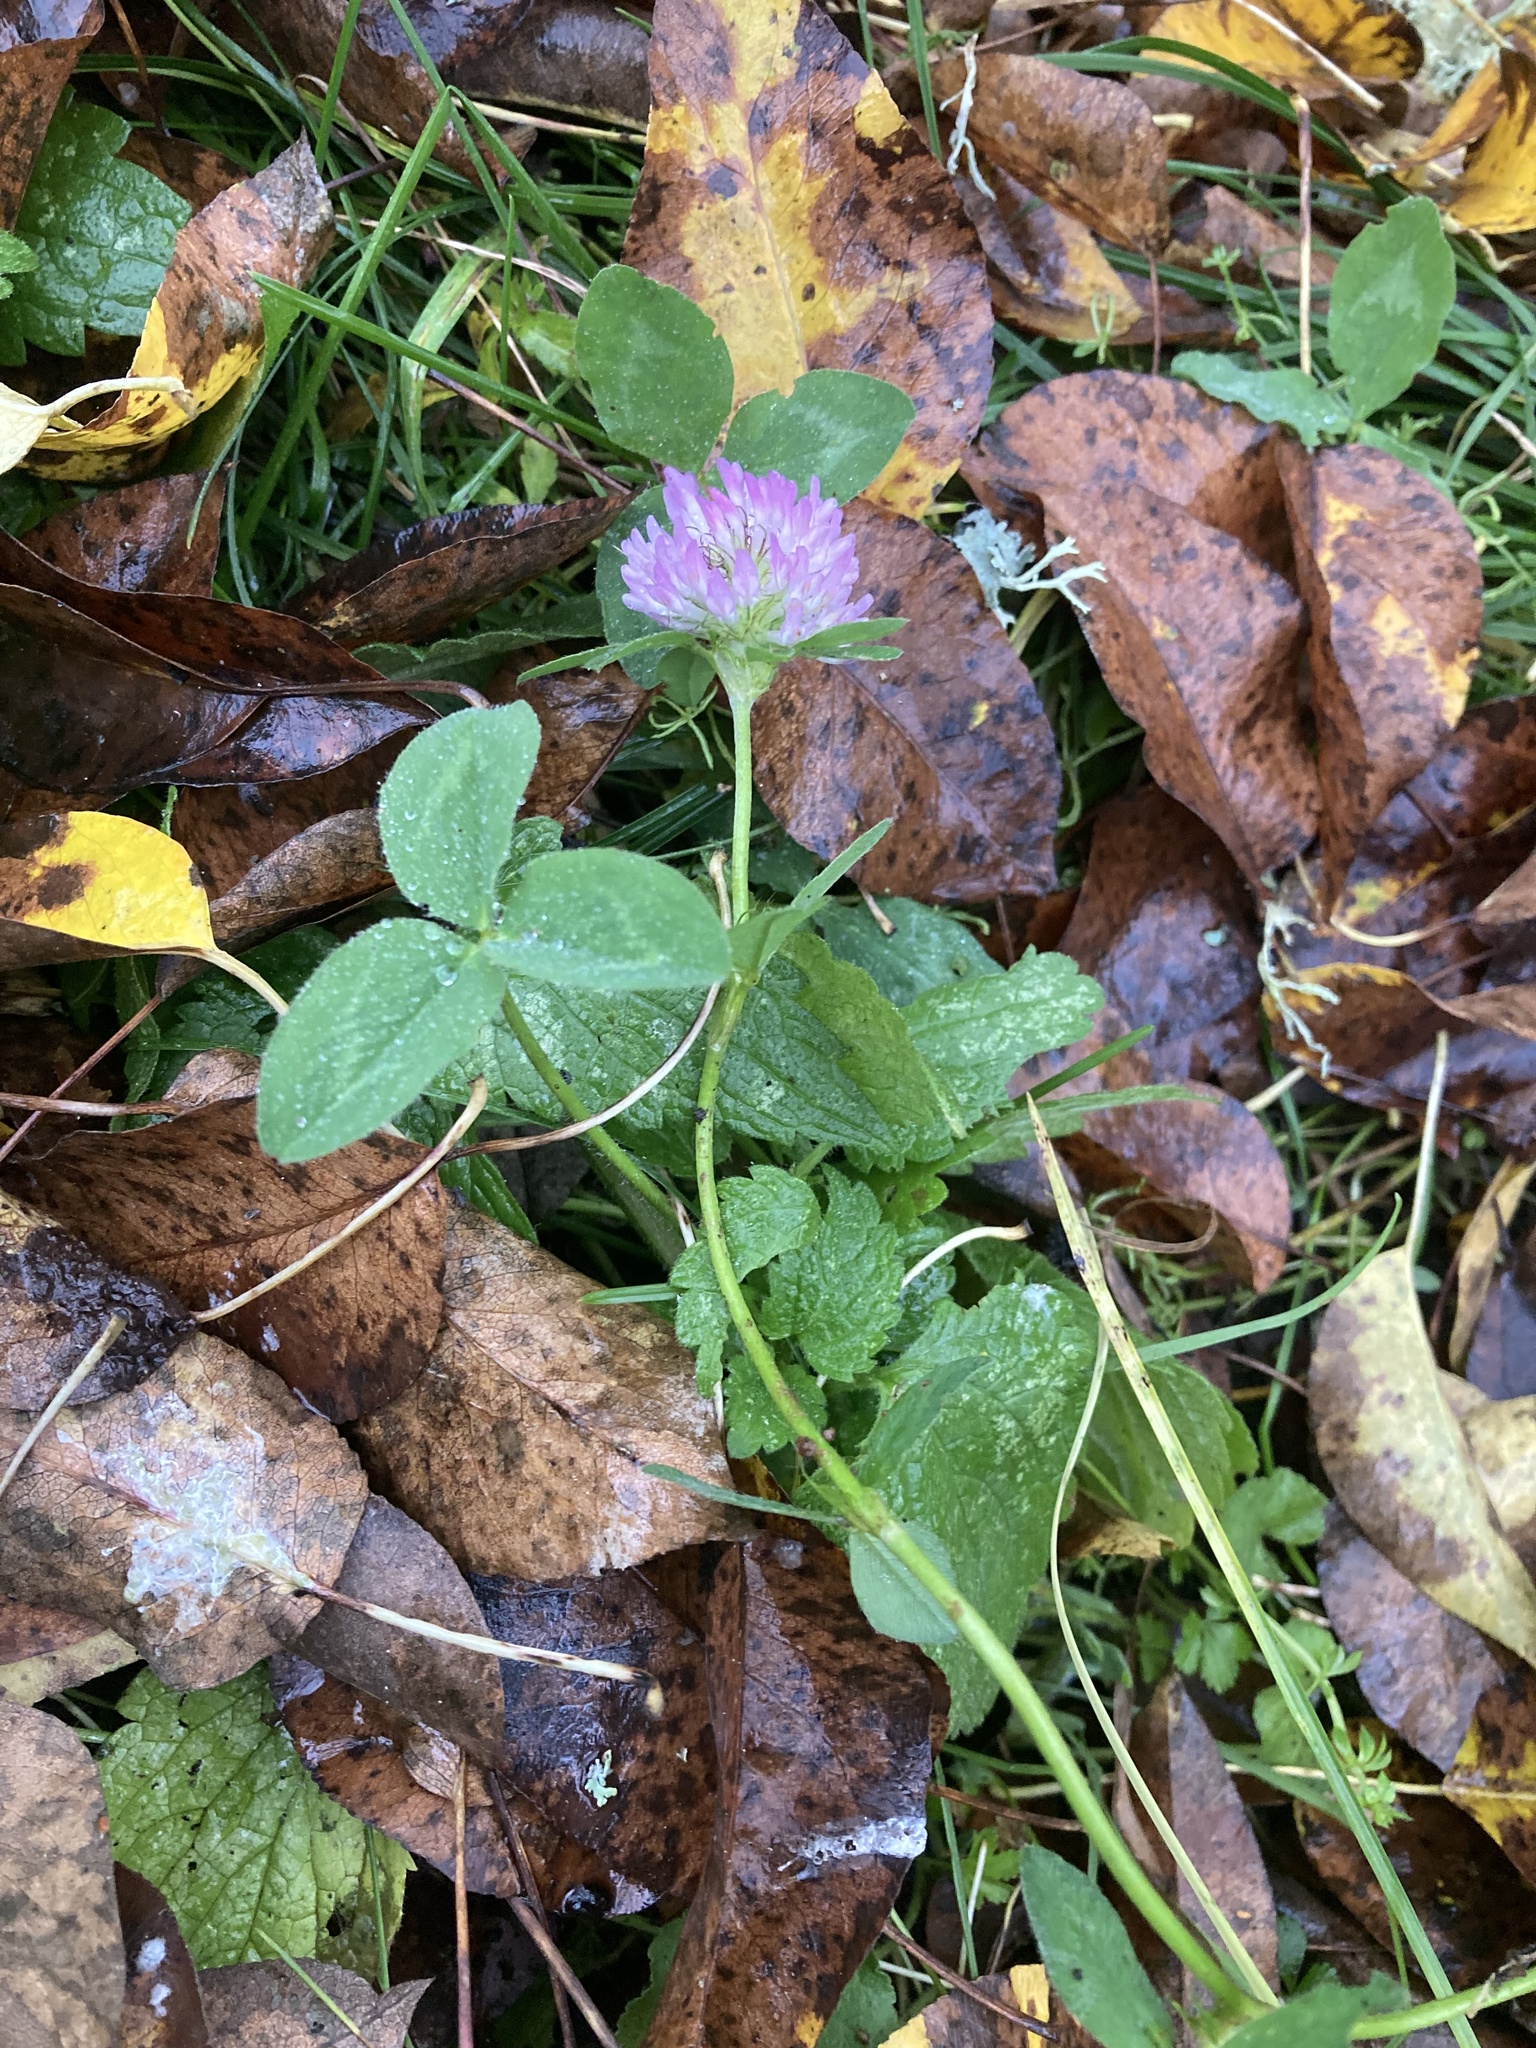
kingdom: Plantae
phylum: Tracheophyta
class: Magnoliopsida
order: Fabales
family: Fabaceae
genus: Trifolium
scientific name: Trifolium pratense
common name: Red clover
